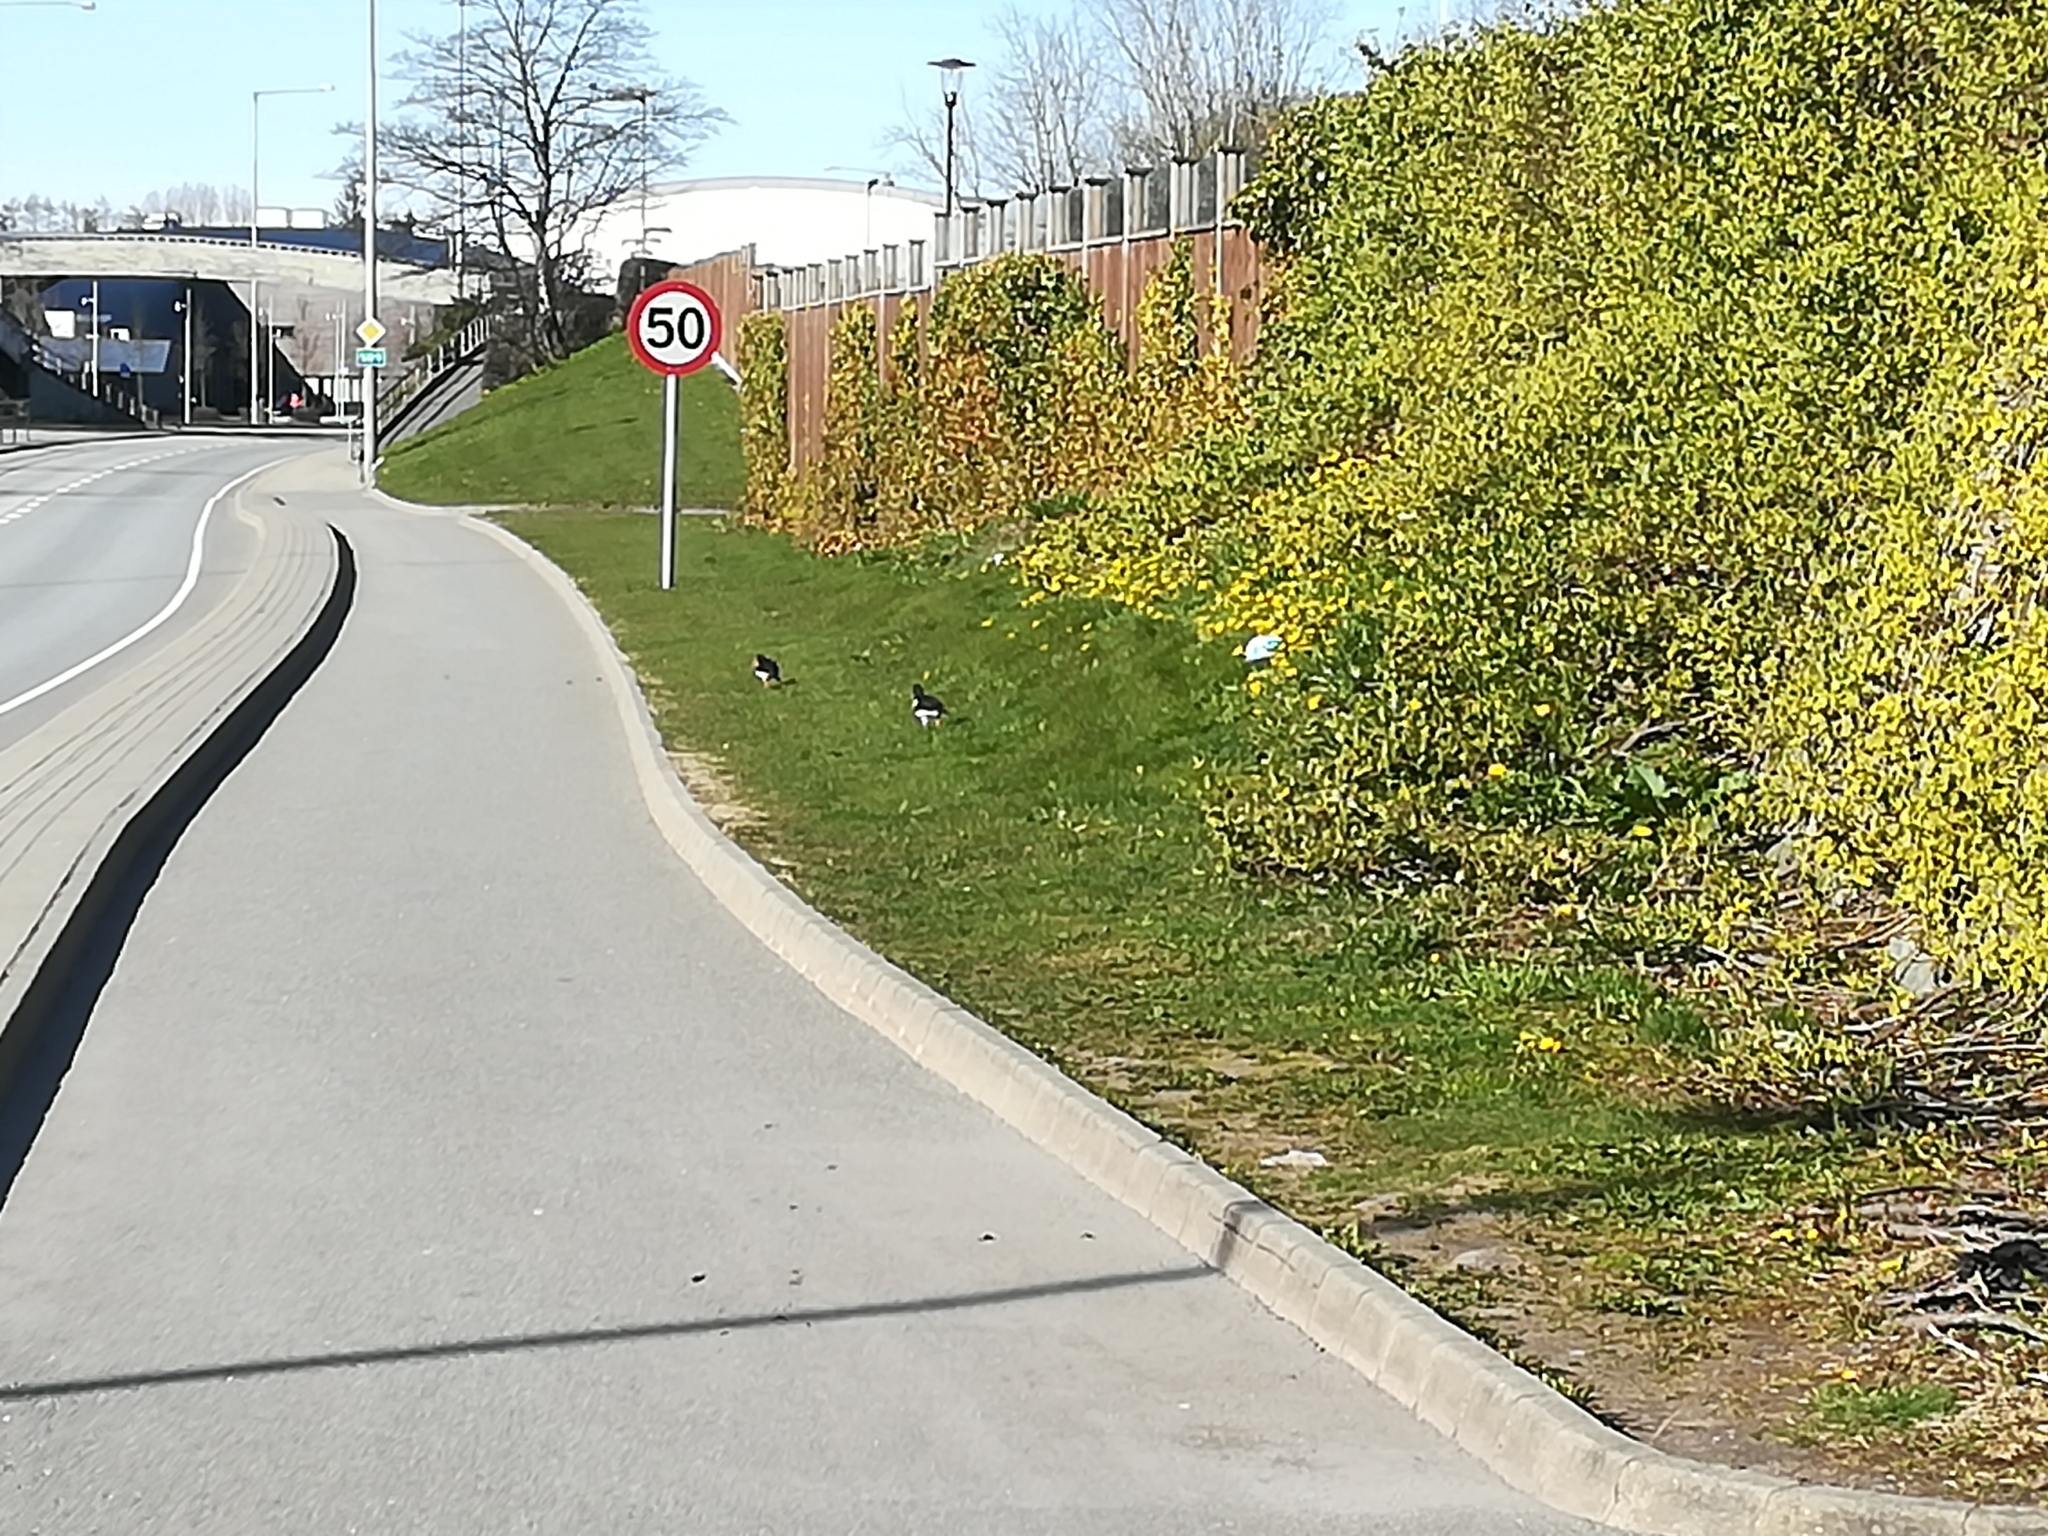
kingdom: Animalia
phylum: Chordata
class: Aves
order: Charadriiformes
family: Haematopodidae
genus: Haematopus
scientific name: Haematopus ostralegus
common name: Eurasian oystercatcher
